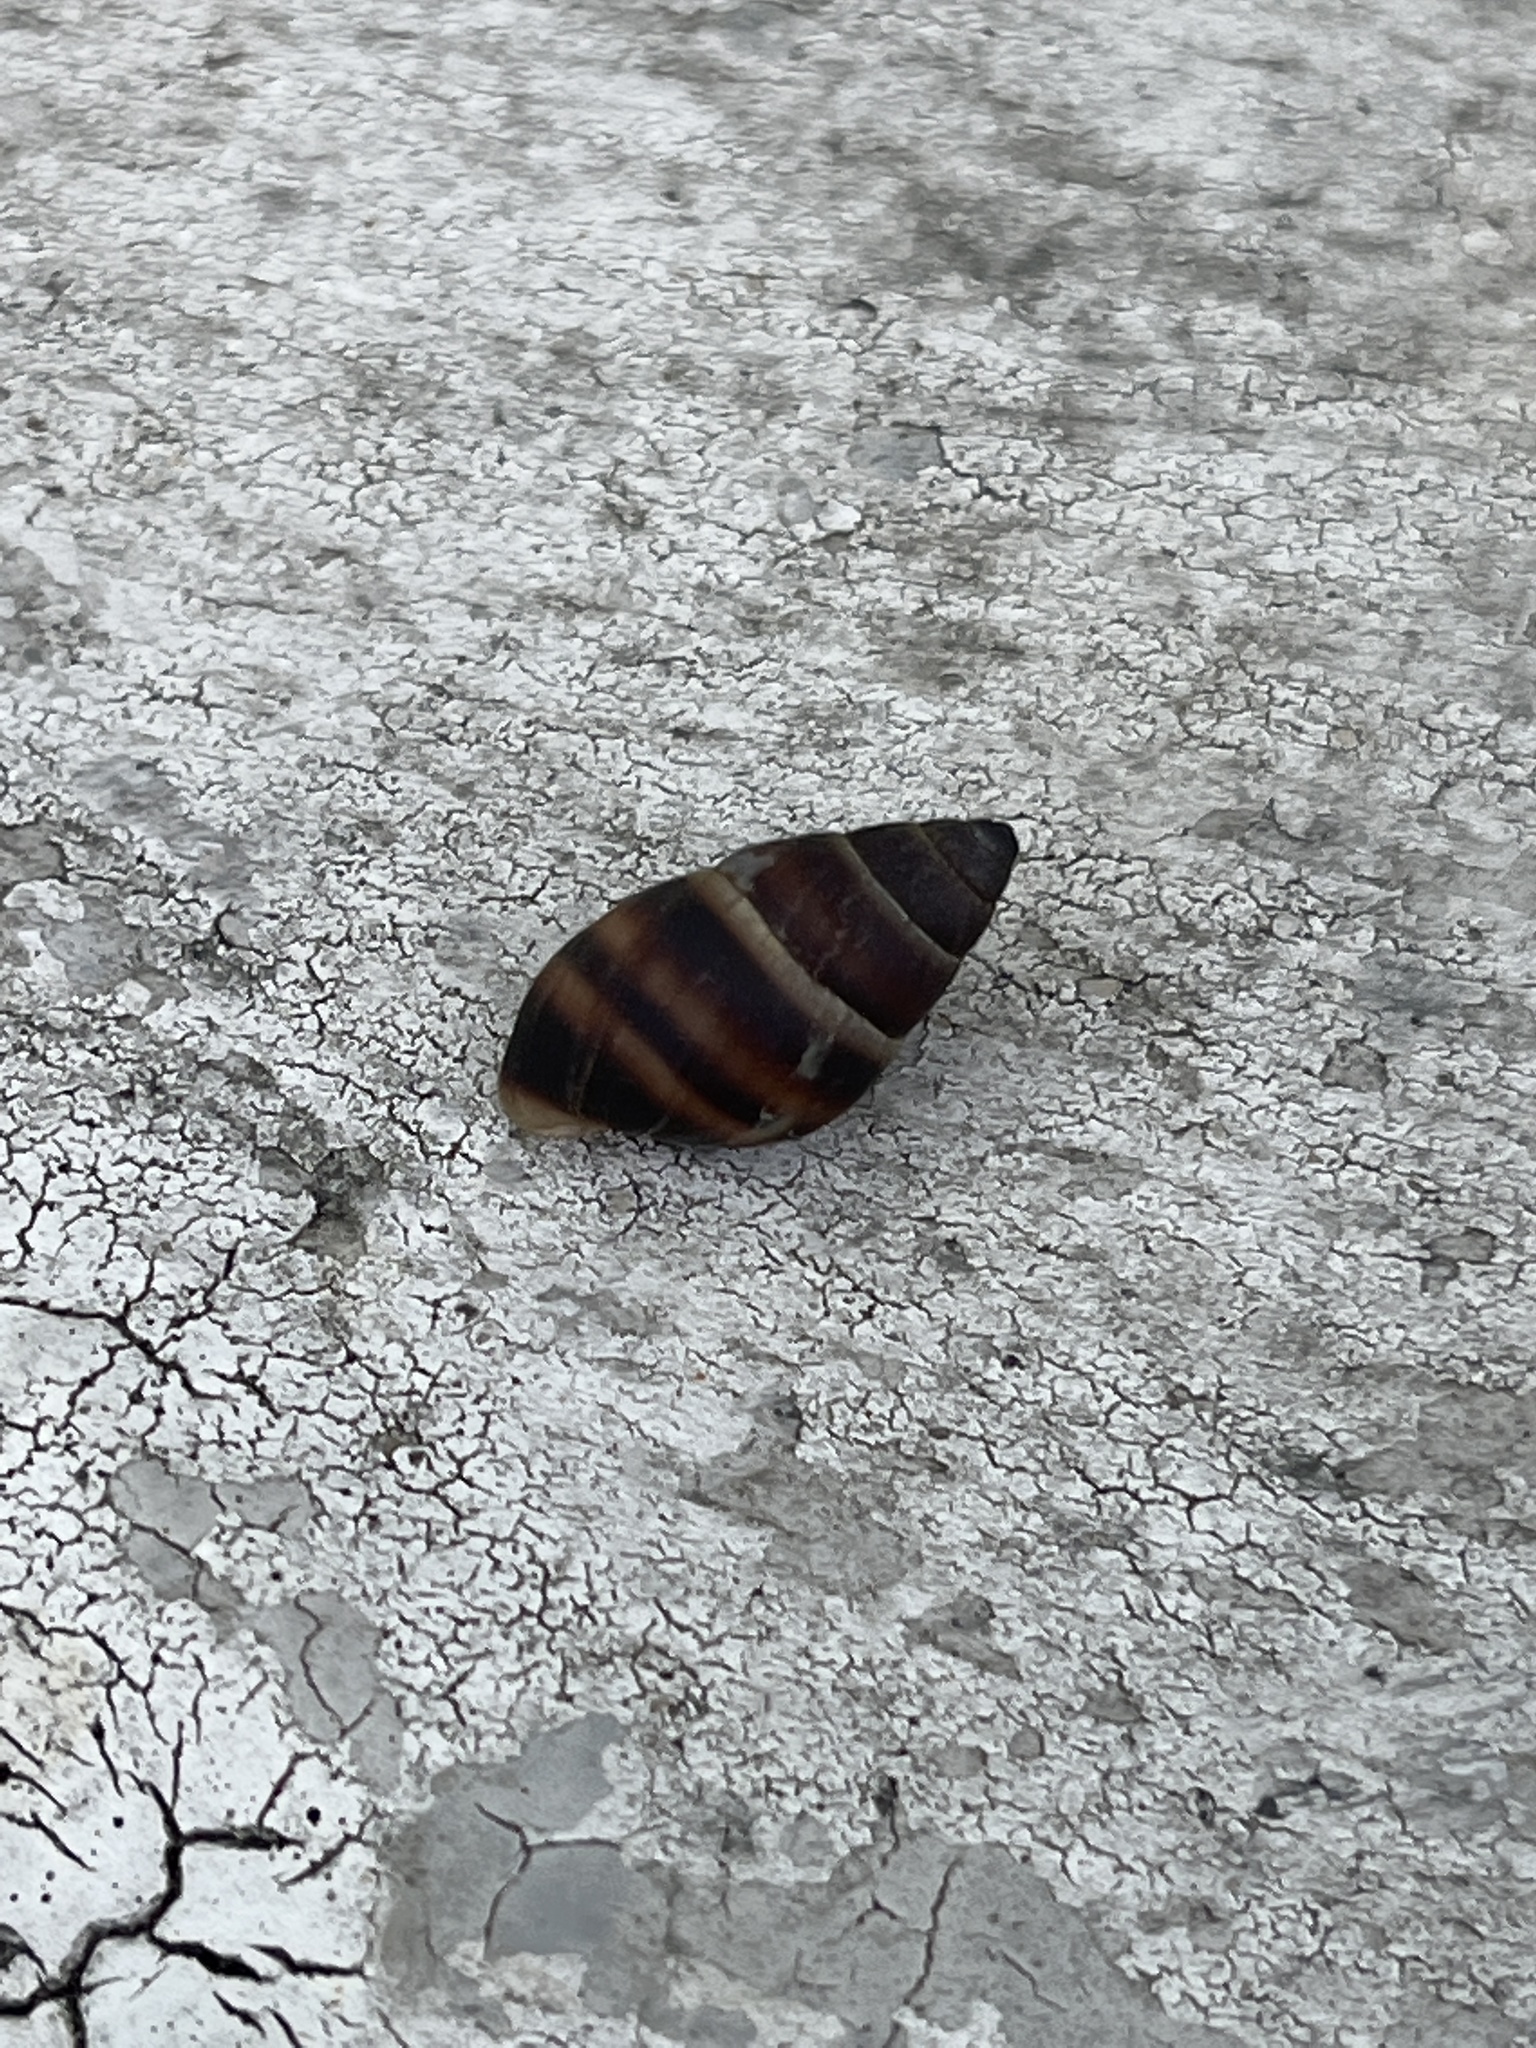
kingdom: Animalia
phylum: Mollusca
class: Gastropoda
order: Stylommatophora
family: Bulimulidae
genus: Bulimulus
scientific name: Bulimulus guadalupensis
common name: West indian bulimulus
